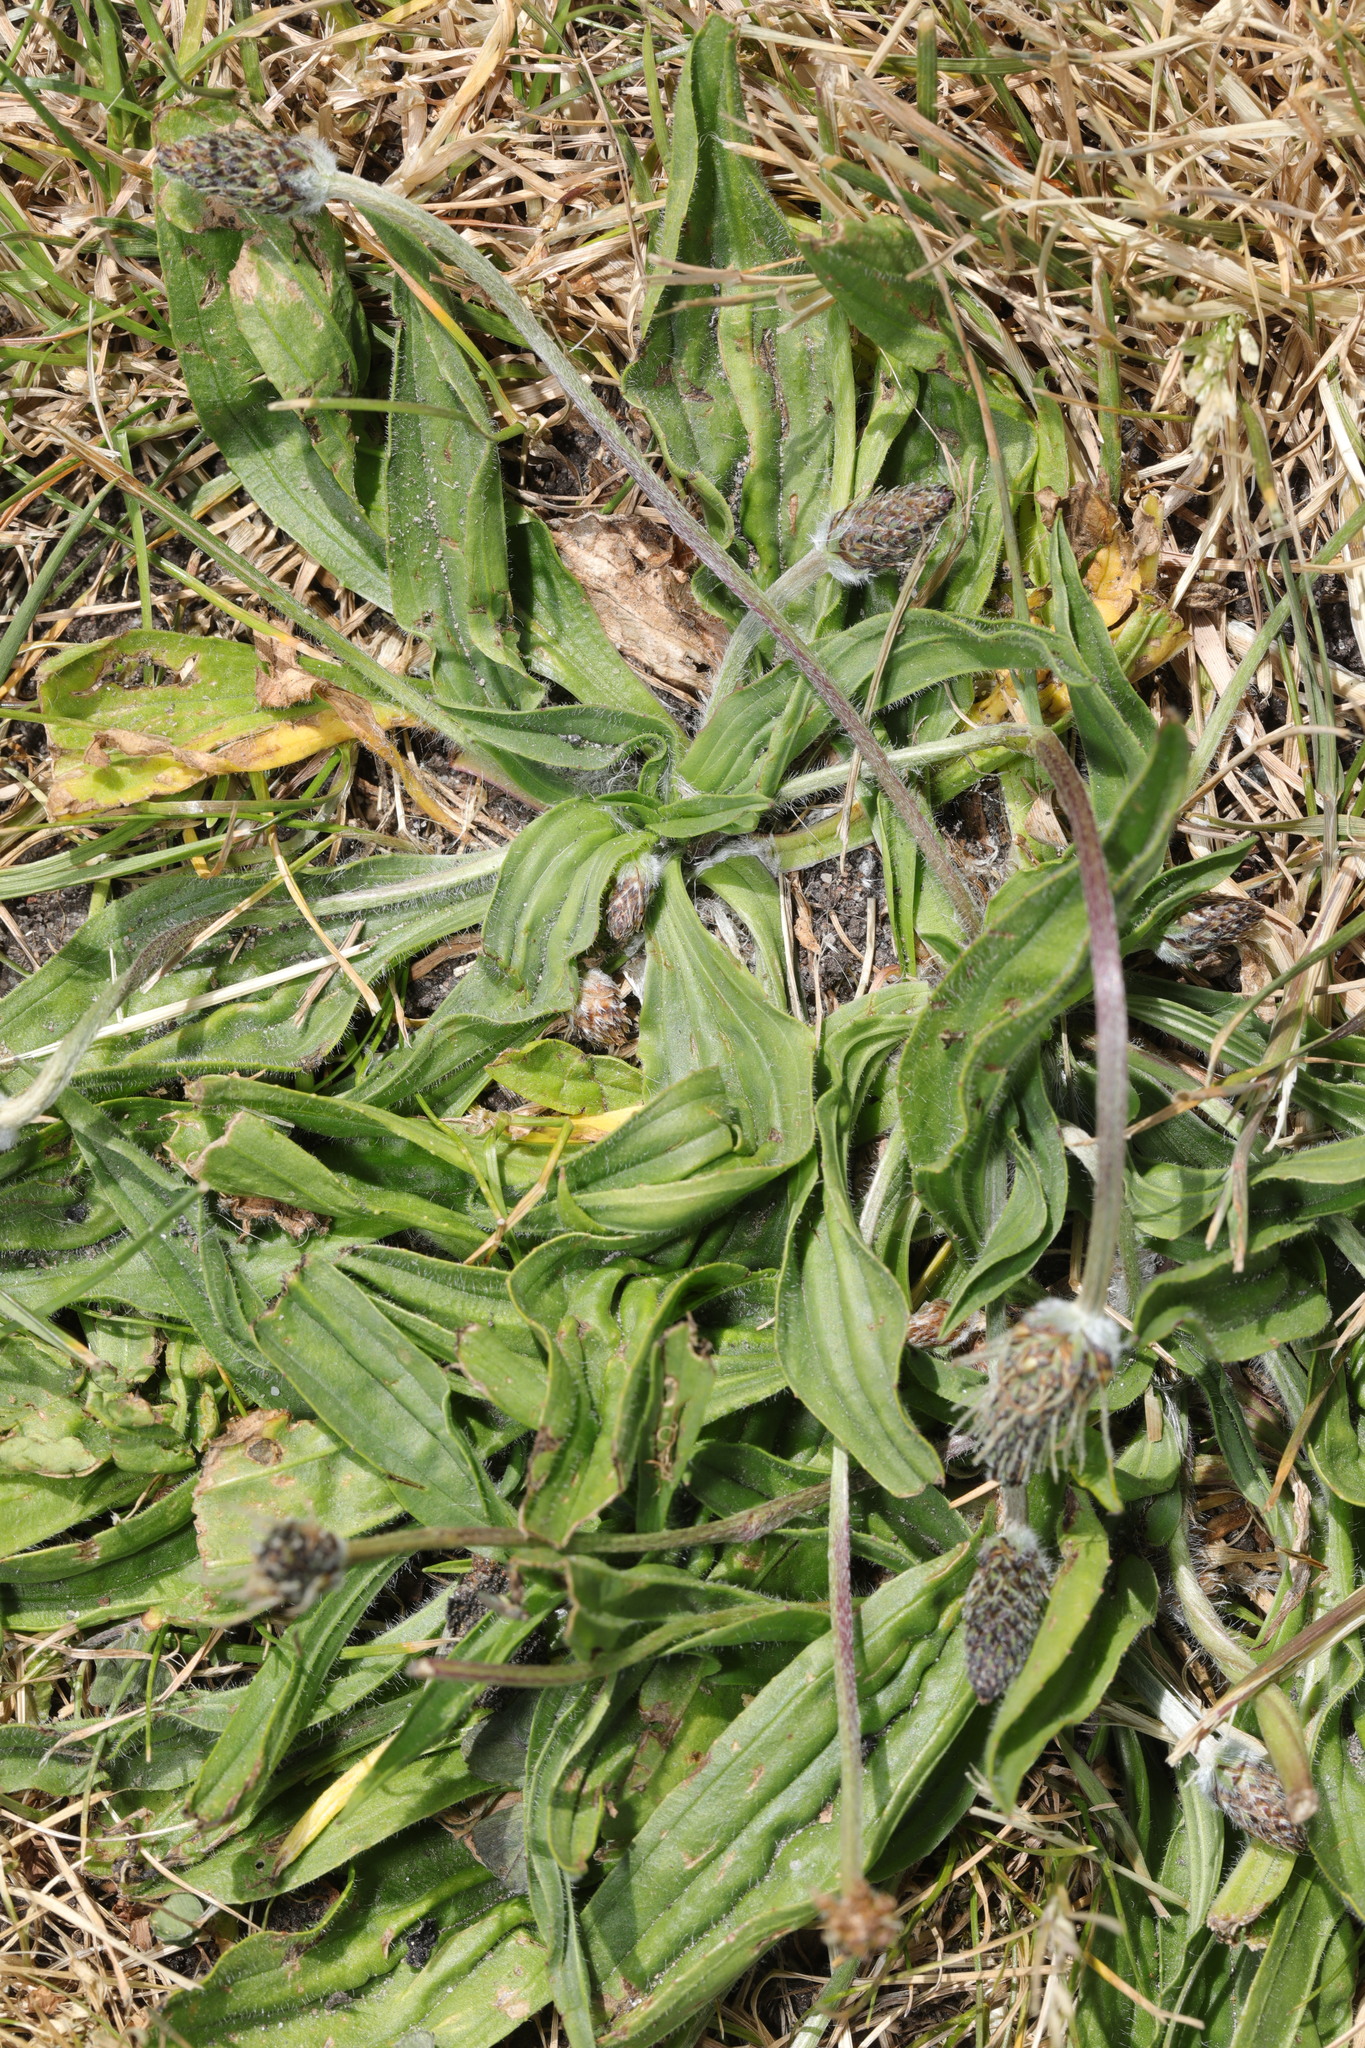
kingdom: Plantae
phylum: Tracheophyta
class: Magnoliopsida
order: Lamiales
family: Plantaginaceae
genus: Plantago
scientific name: Plantago lanceolata
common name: Ribwort plantain
